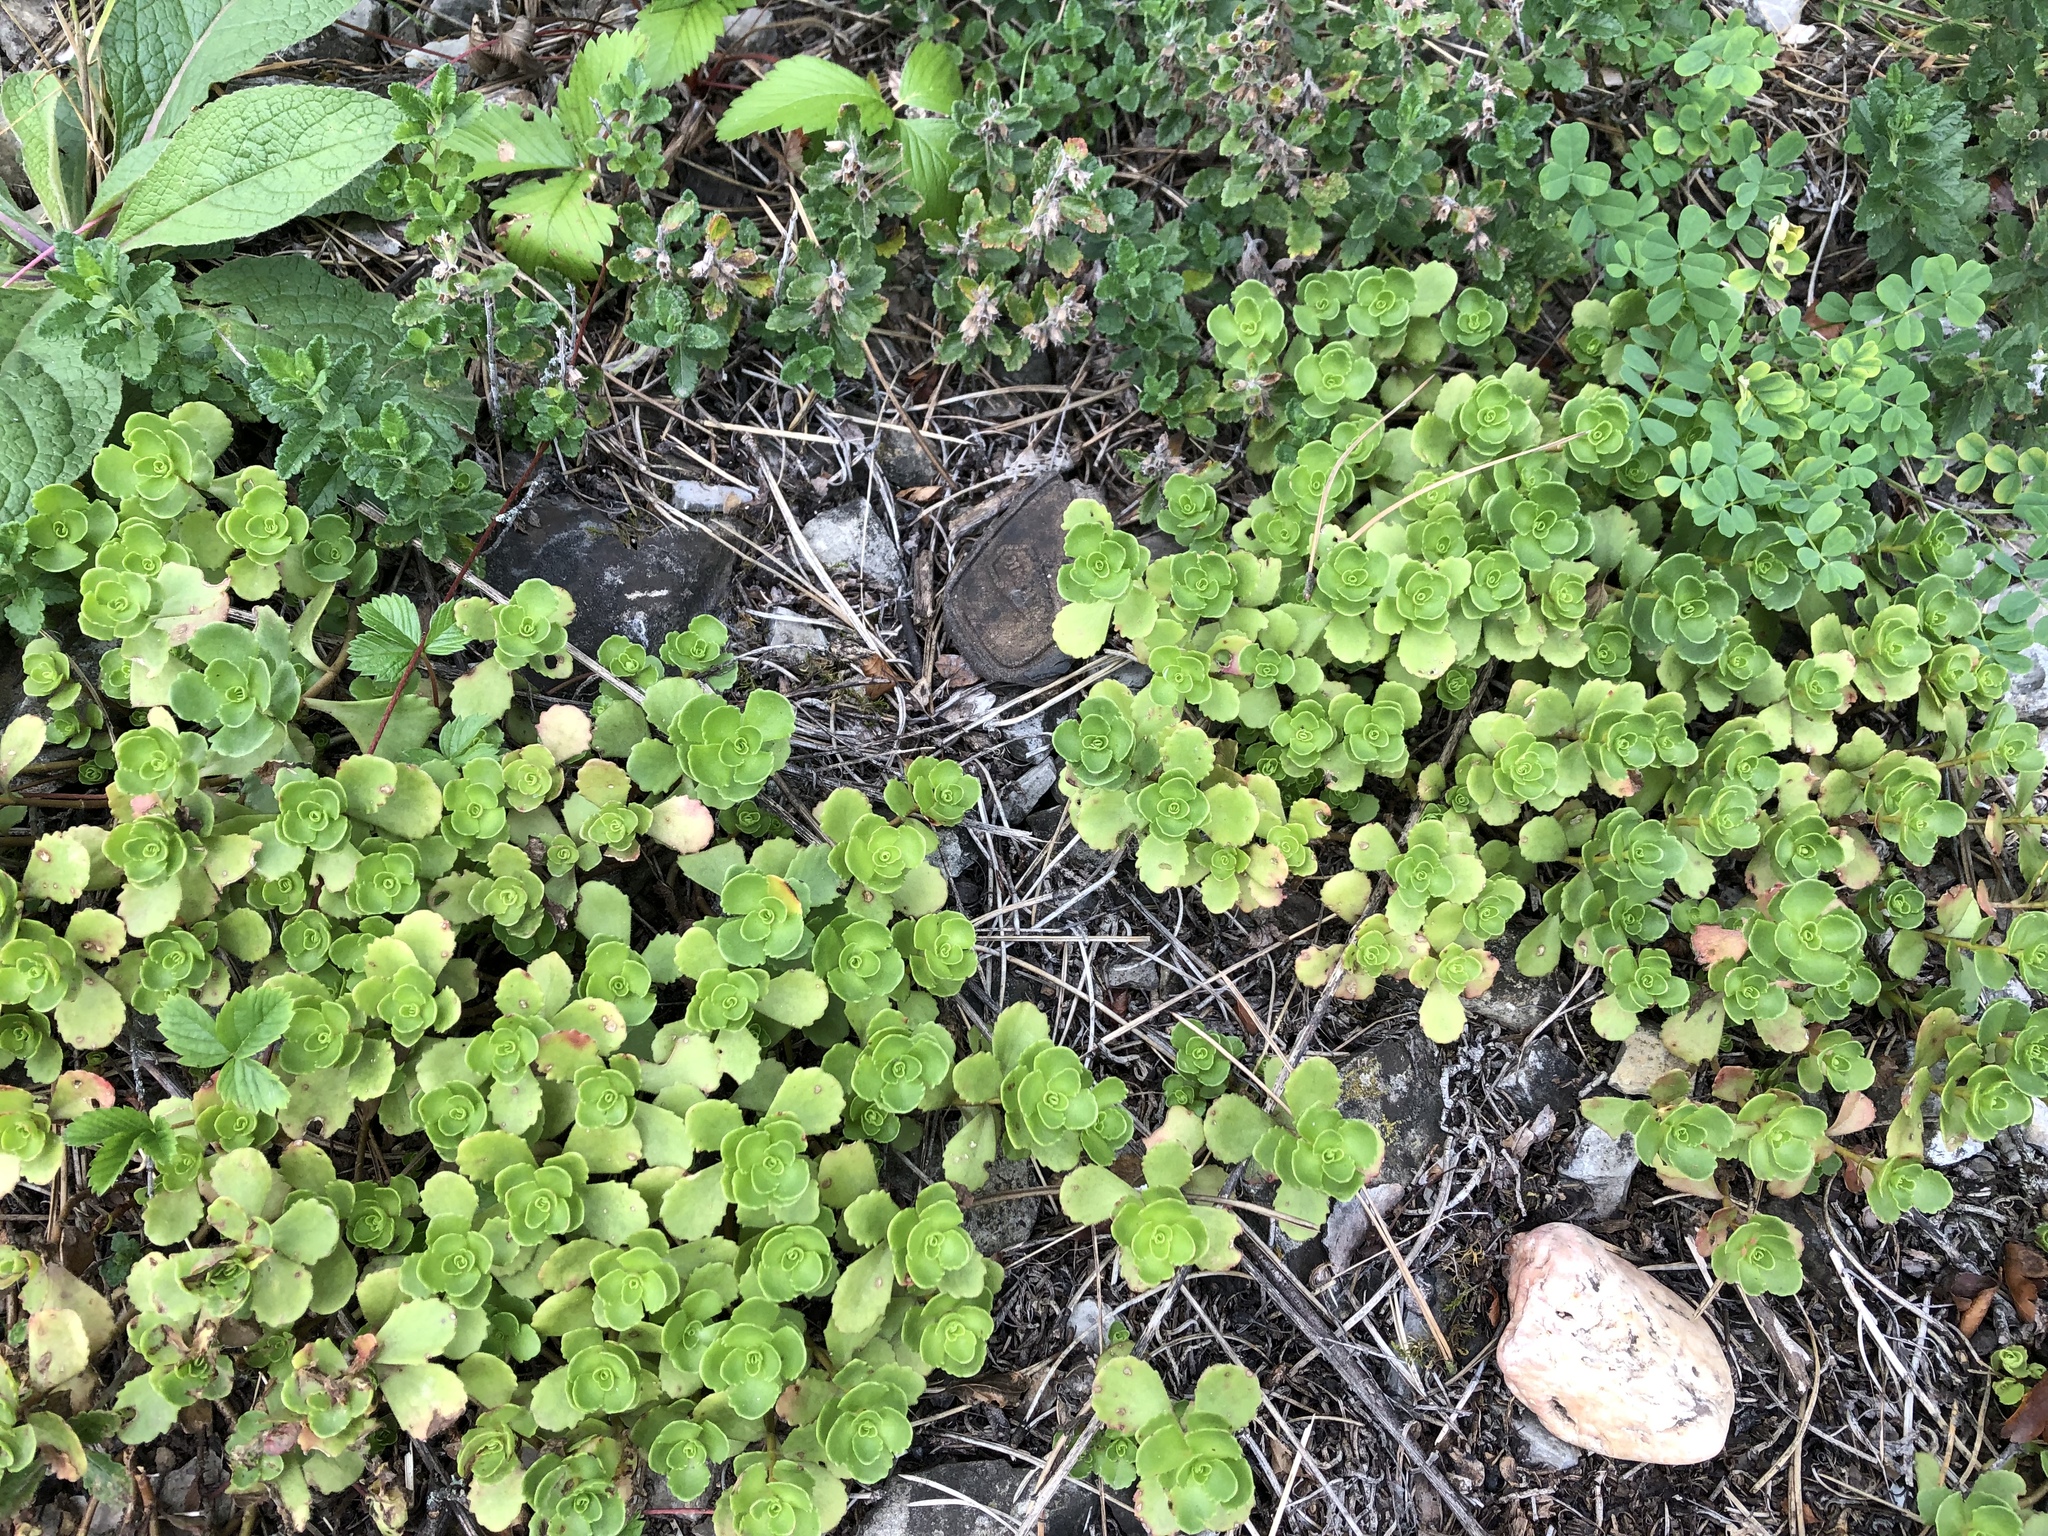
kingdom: Plantae
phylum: Tracheophyta
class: Magnoliopsida
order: Saxifragales
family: Crassulaceae
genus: Phedimus
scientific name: Phedimus spurius
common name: Caucasian stonecrop
